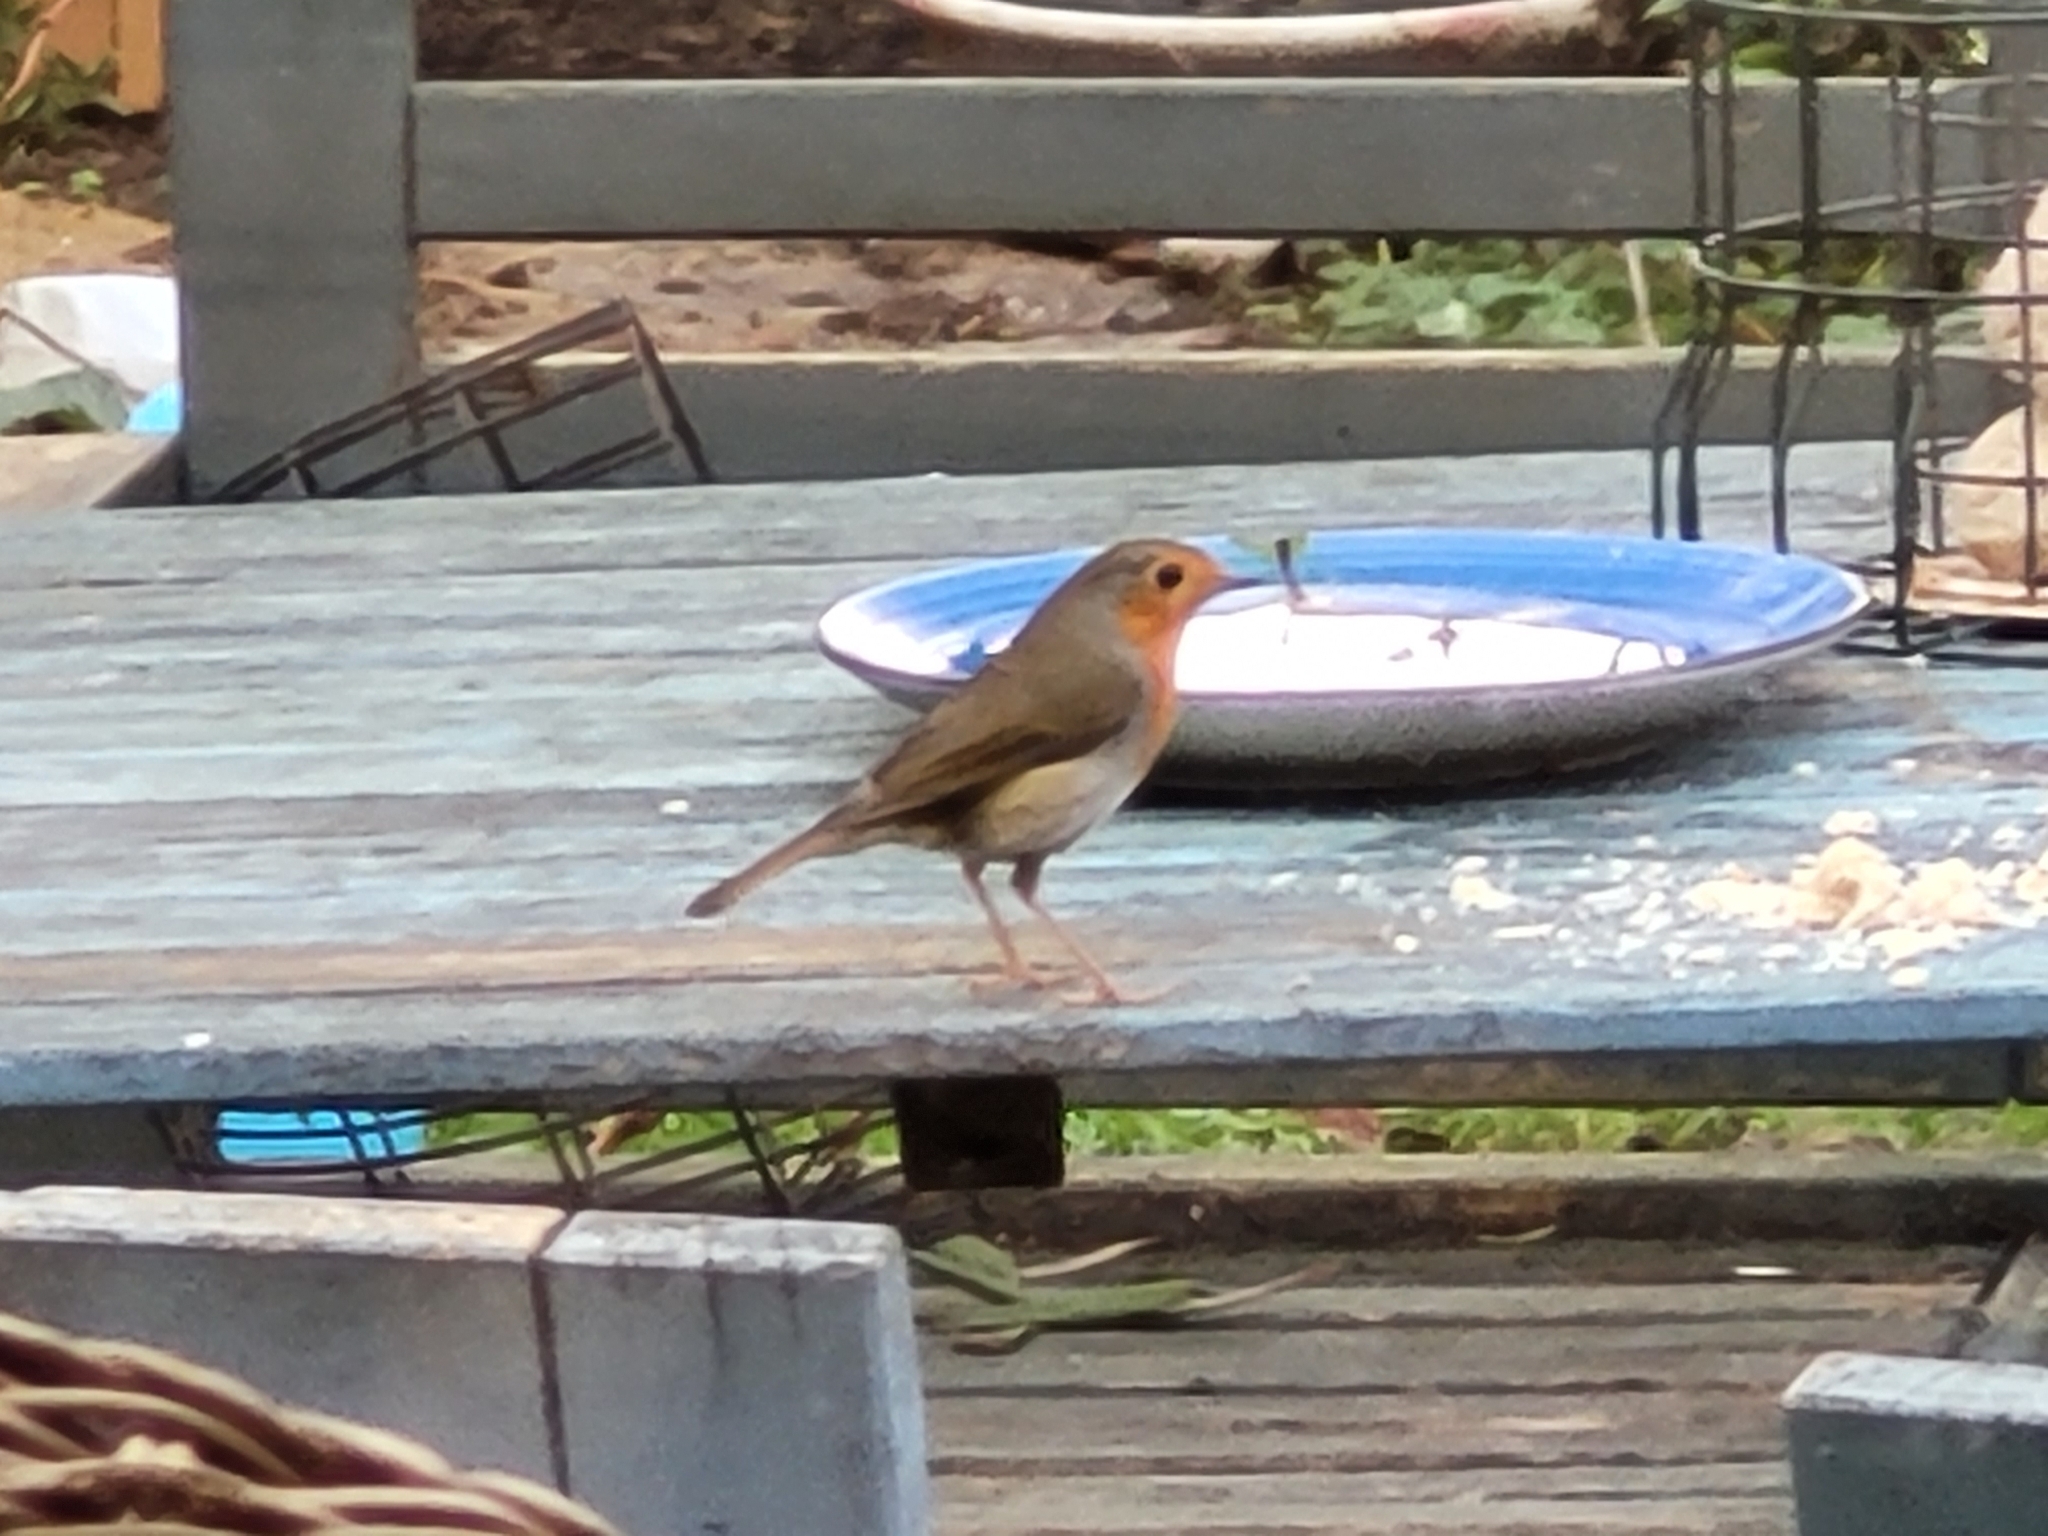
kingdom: Animalia
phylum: Chordata
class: Aves
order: Passeriformes
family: Muscicapidae
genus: Erithacus
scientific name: Erithacus rubecula
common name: European robin
